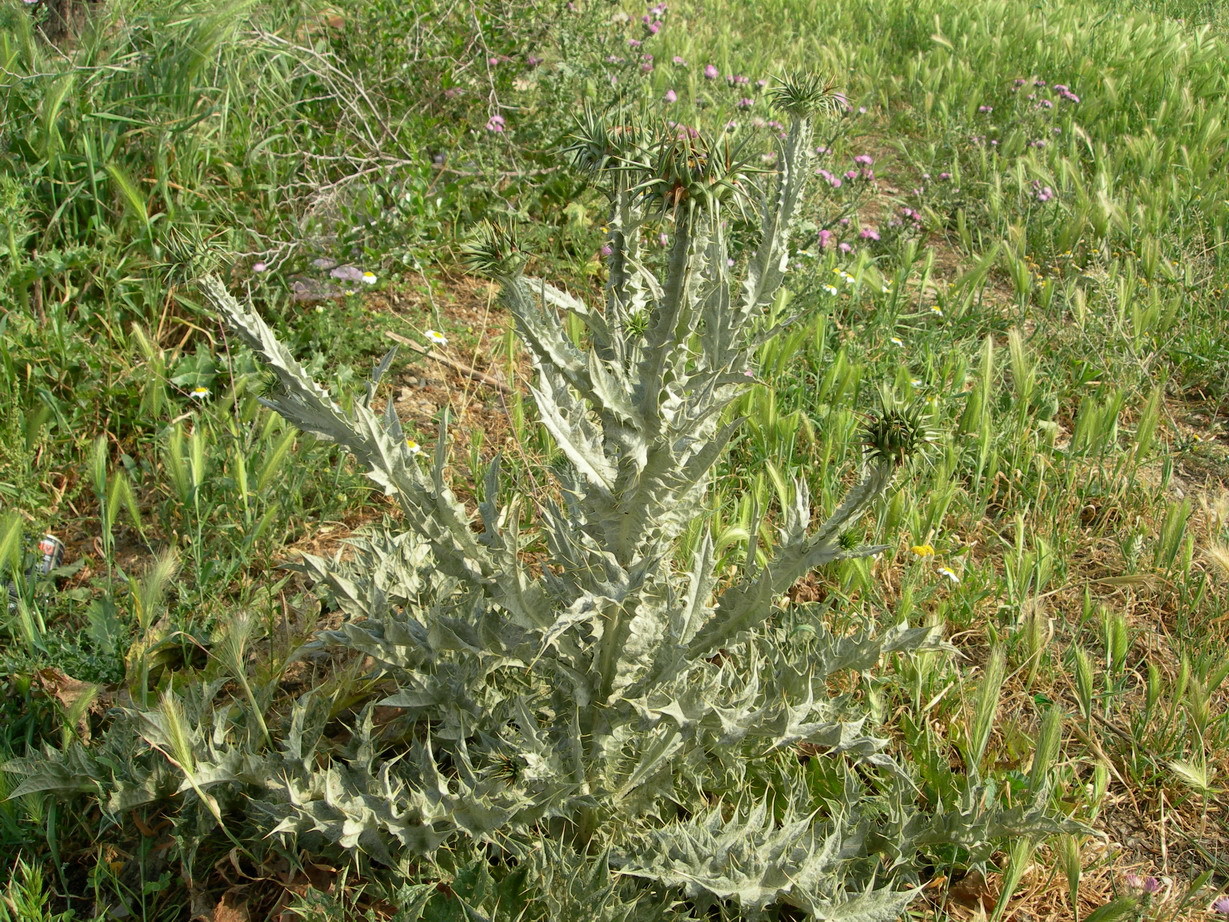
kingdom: Plantae
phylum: Tracheophyta
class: Magnoliopsida
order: Asterales
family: Asteraceae
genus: Onopordum
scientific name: Onopordum macracanthum
